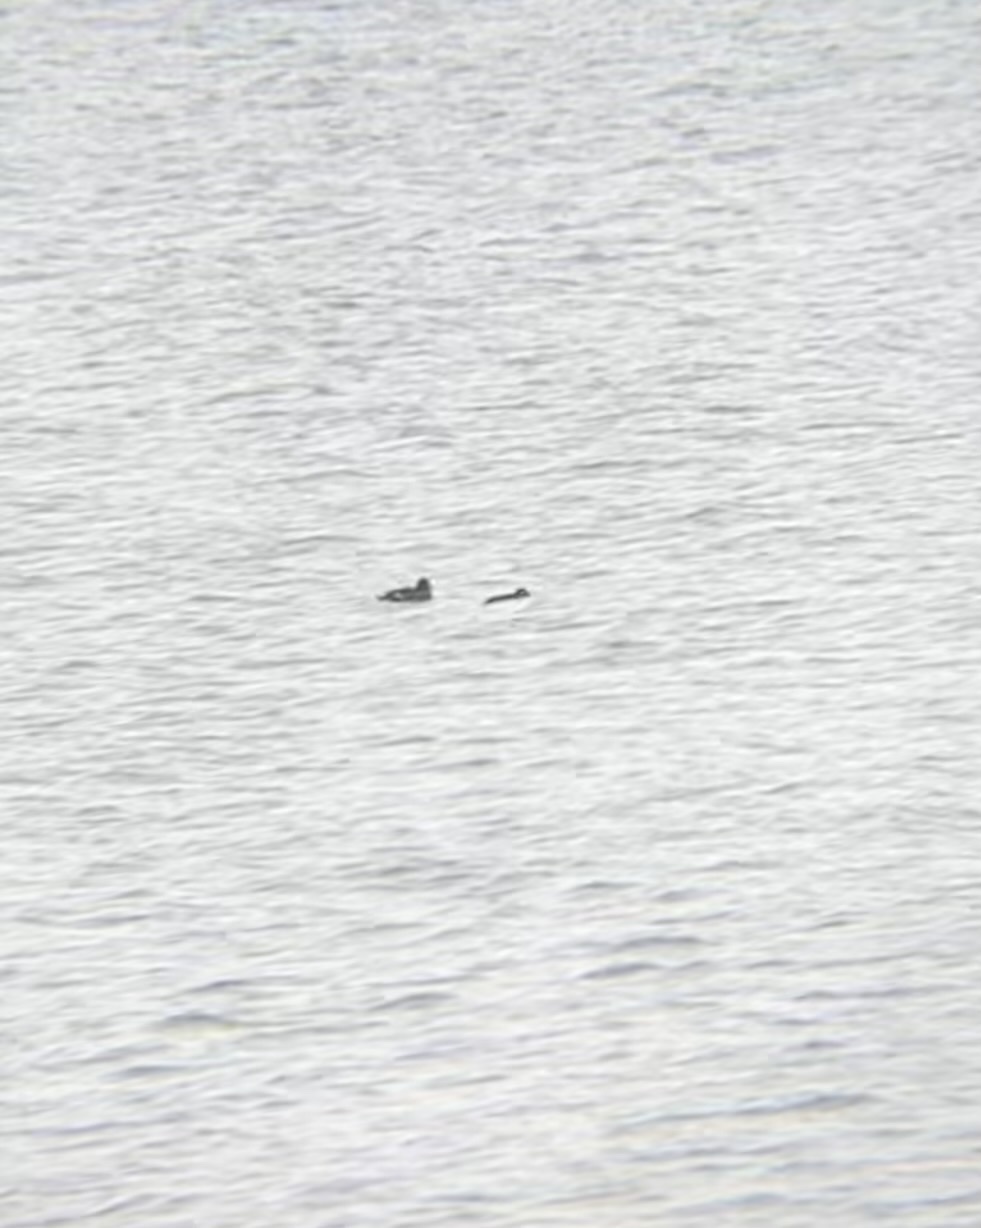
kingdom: Animalia
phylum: Chordata
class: Aves
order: Anseriformes
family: Anatidae
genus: Melanitta
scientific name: Melanitta deglandi
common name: White-winged scoter
